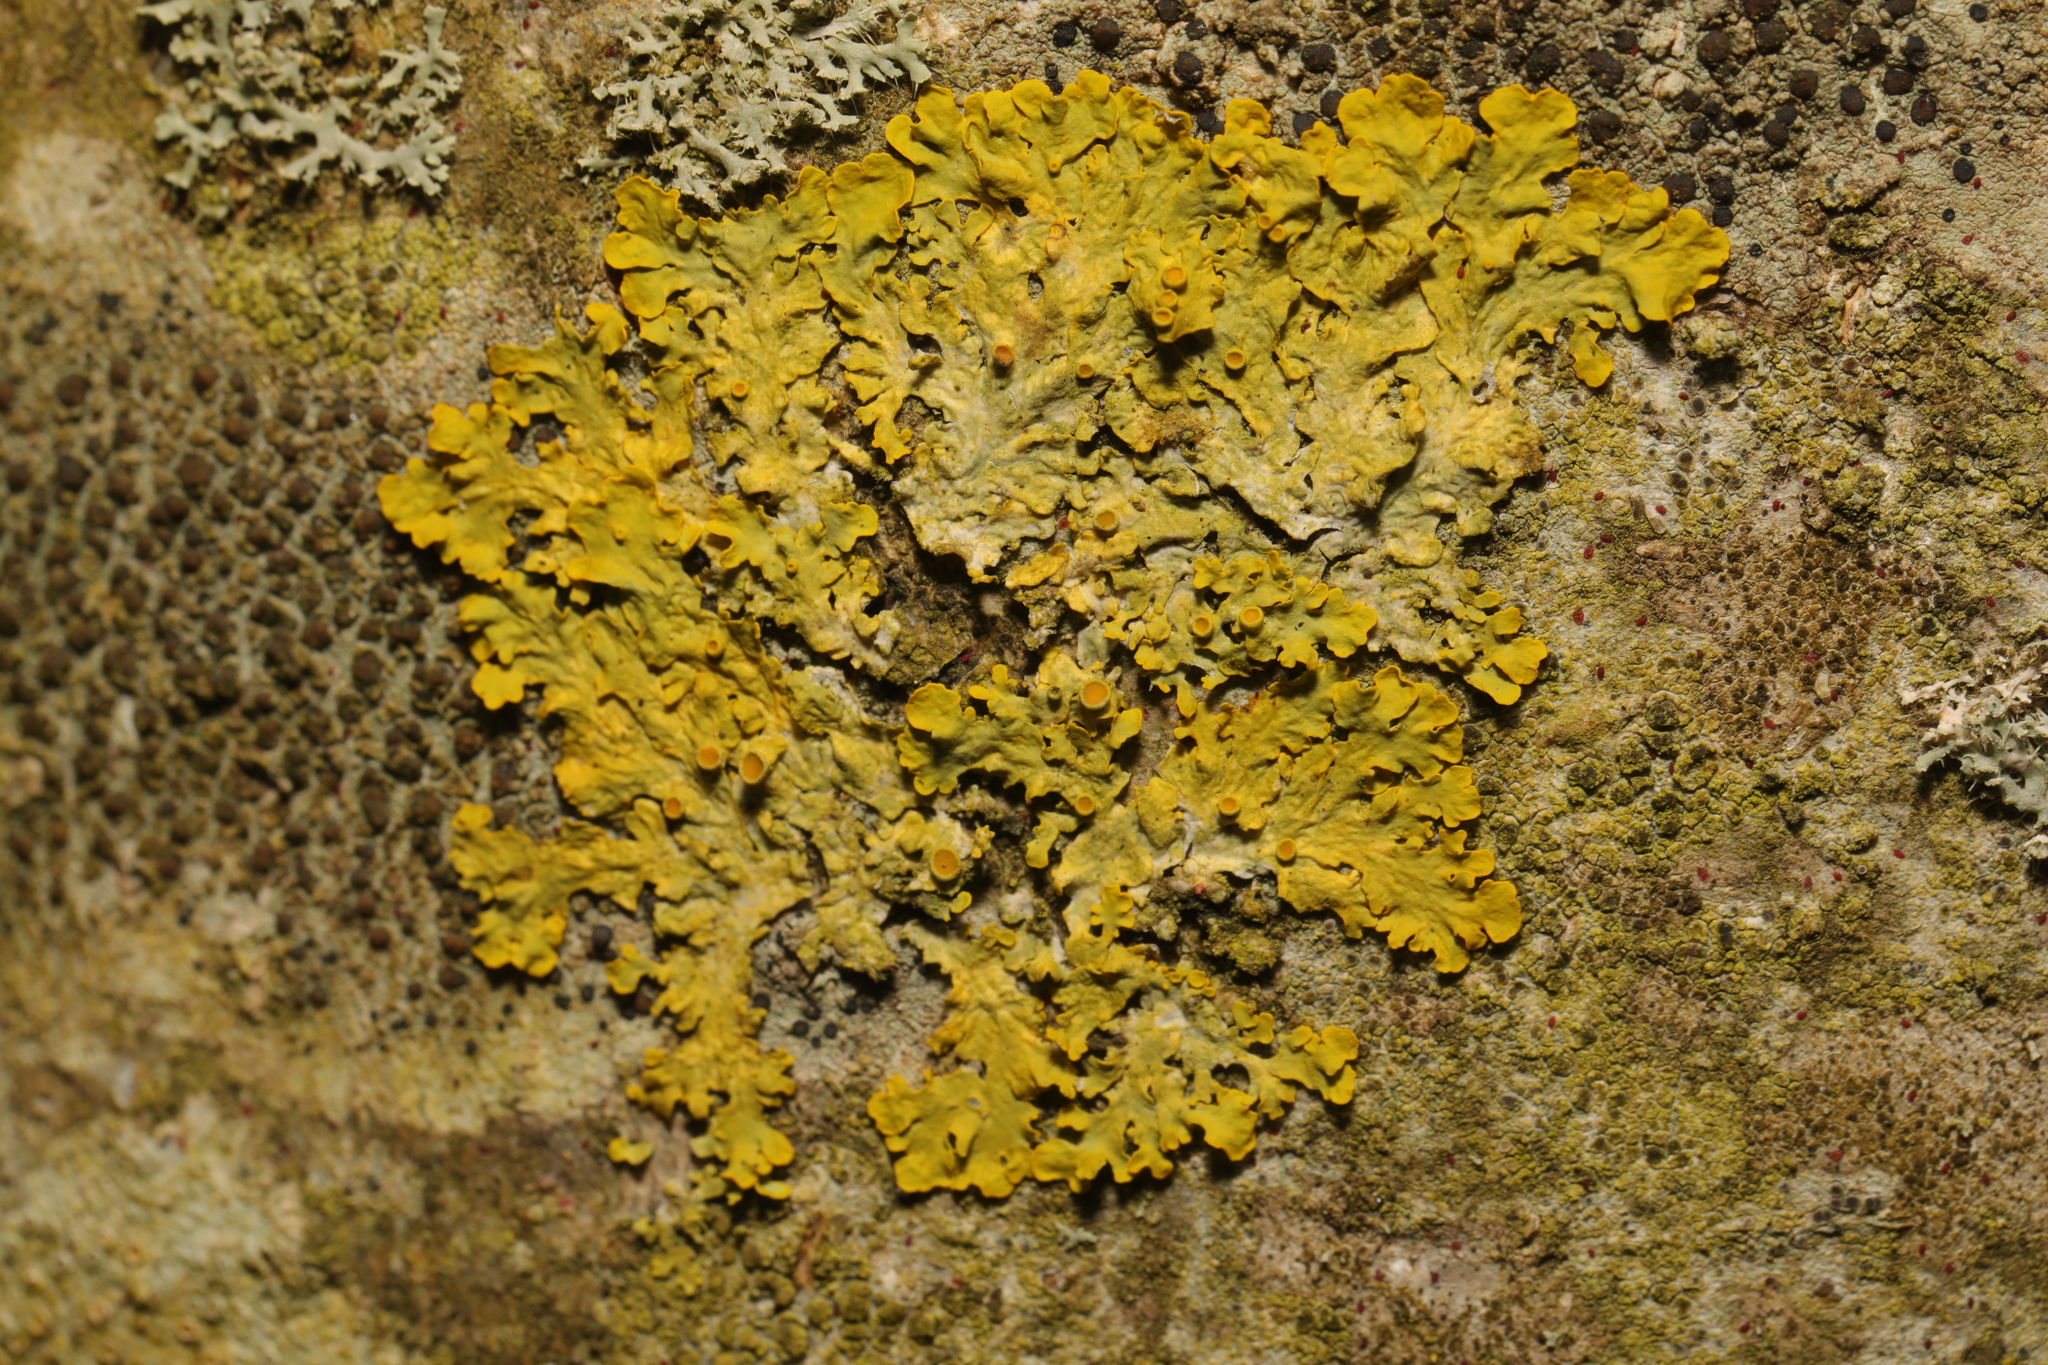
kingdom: Fungi
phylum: Ascomycota
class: Lecanoromycetes
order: Teloschistales
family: Teloschistaceae
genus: Xanthoria
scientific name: Xanthoria parietina
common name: Common orange lichen
